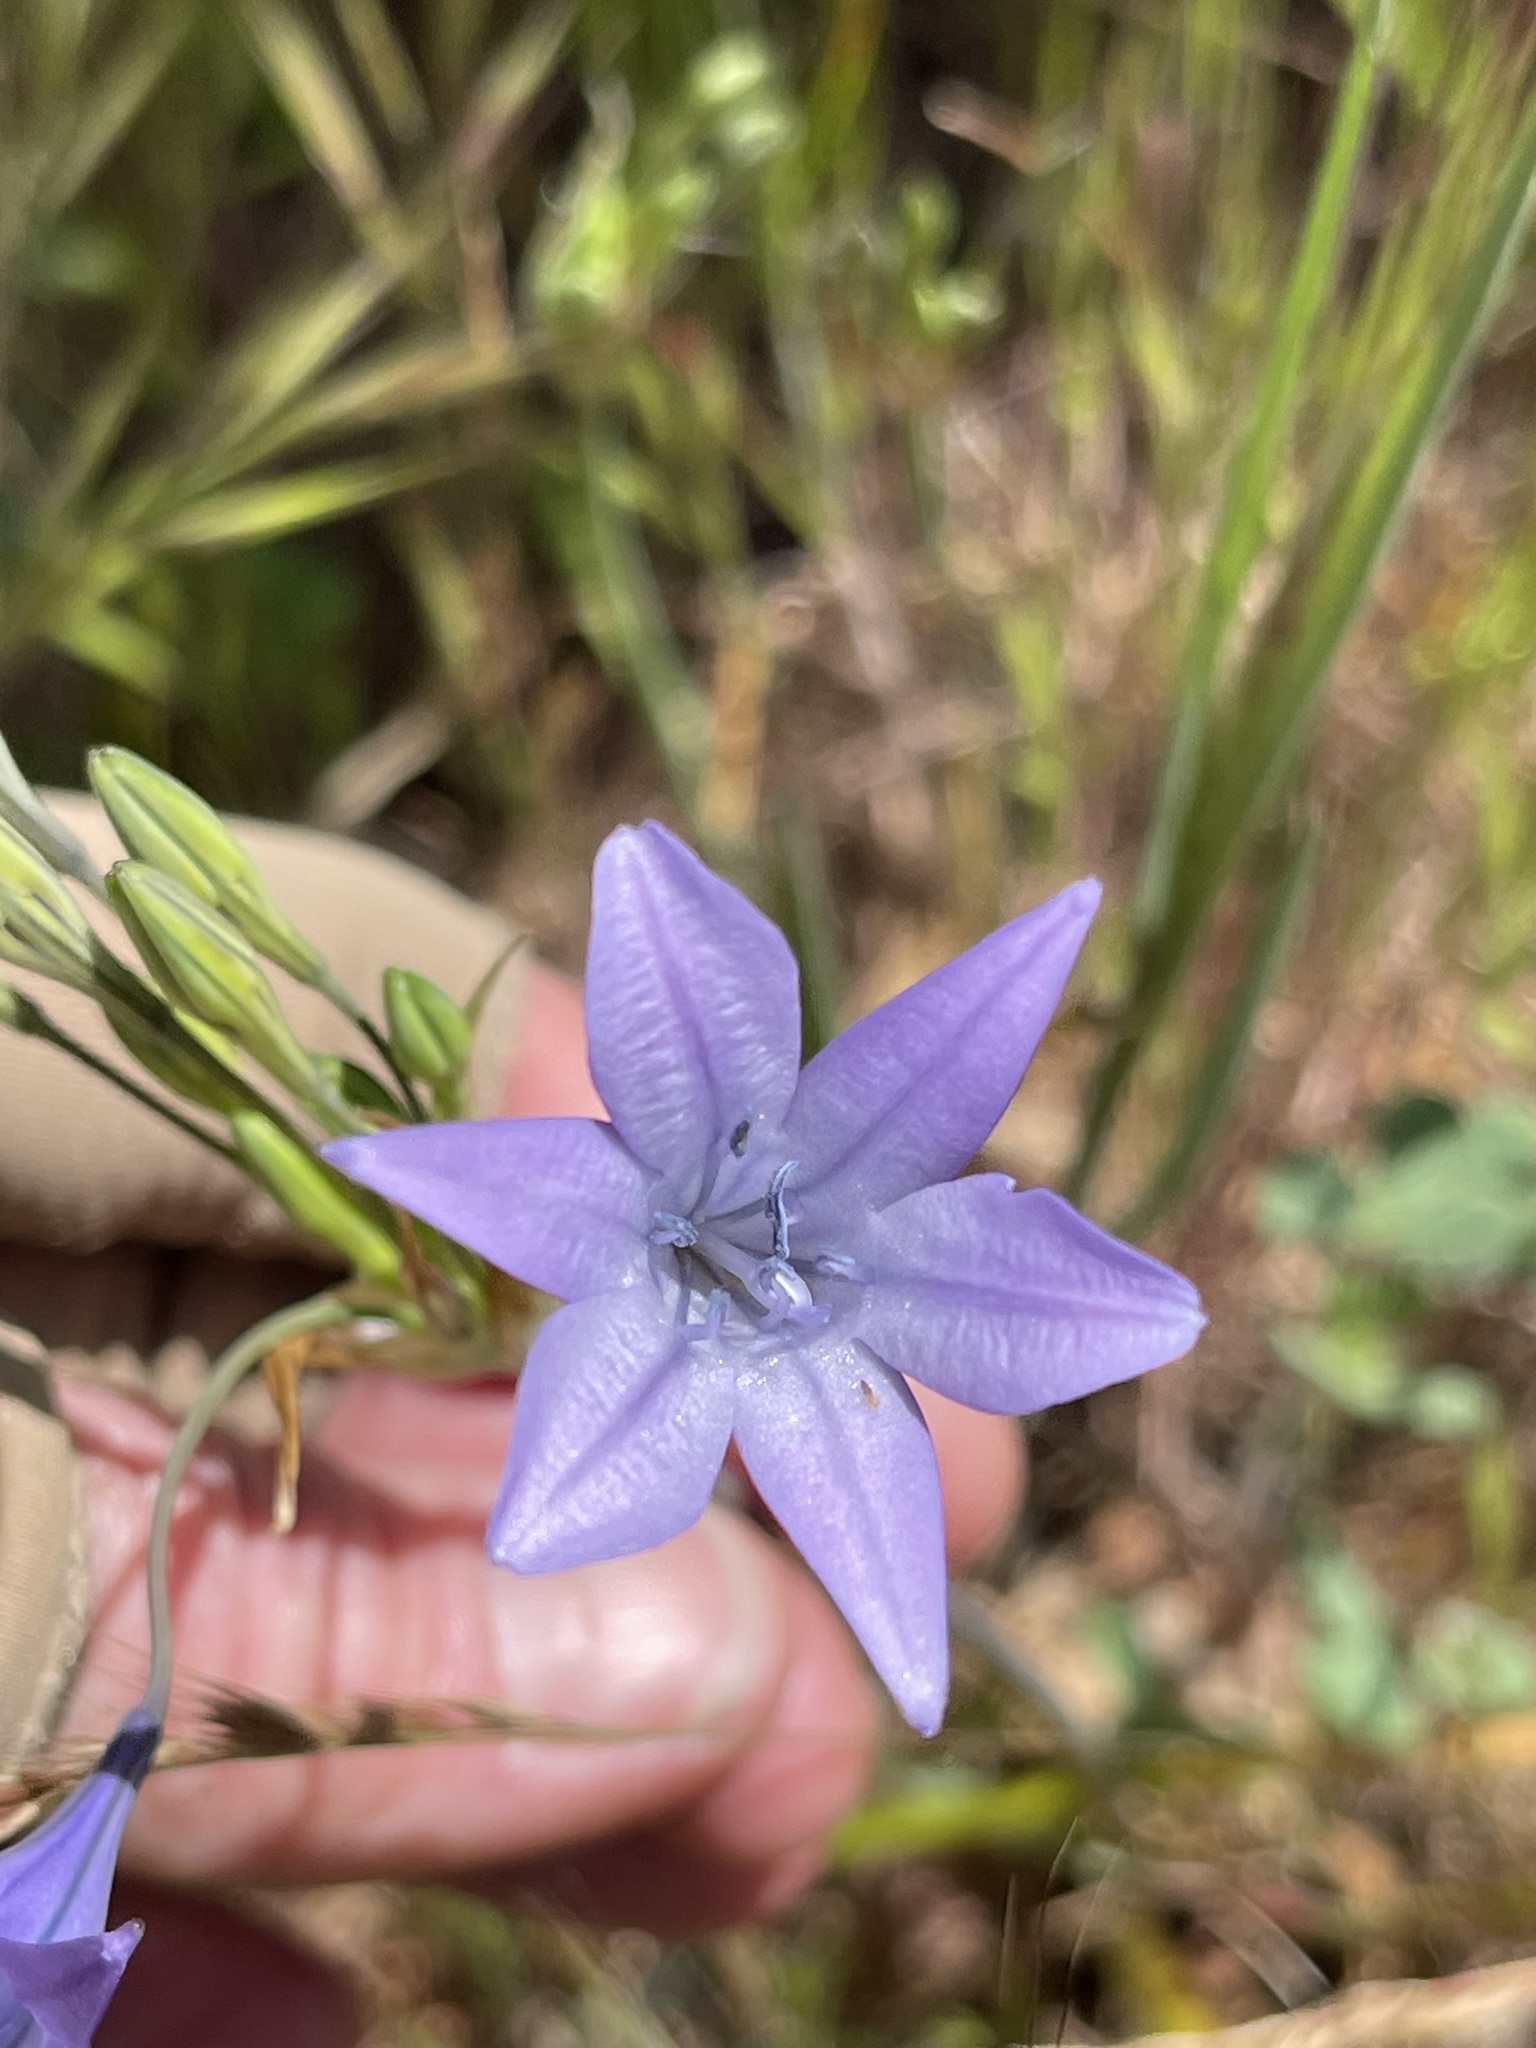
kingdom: Plantae
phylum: Tracheophyta
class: Liliopsida
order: Asparagales
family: Asparagaceae
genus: Triteleia
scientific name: Triteleia laxa
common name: Triplet-lily
